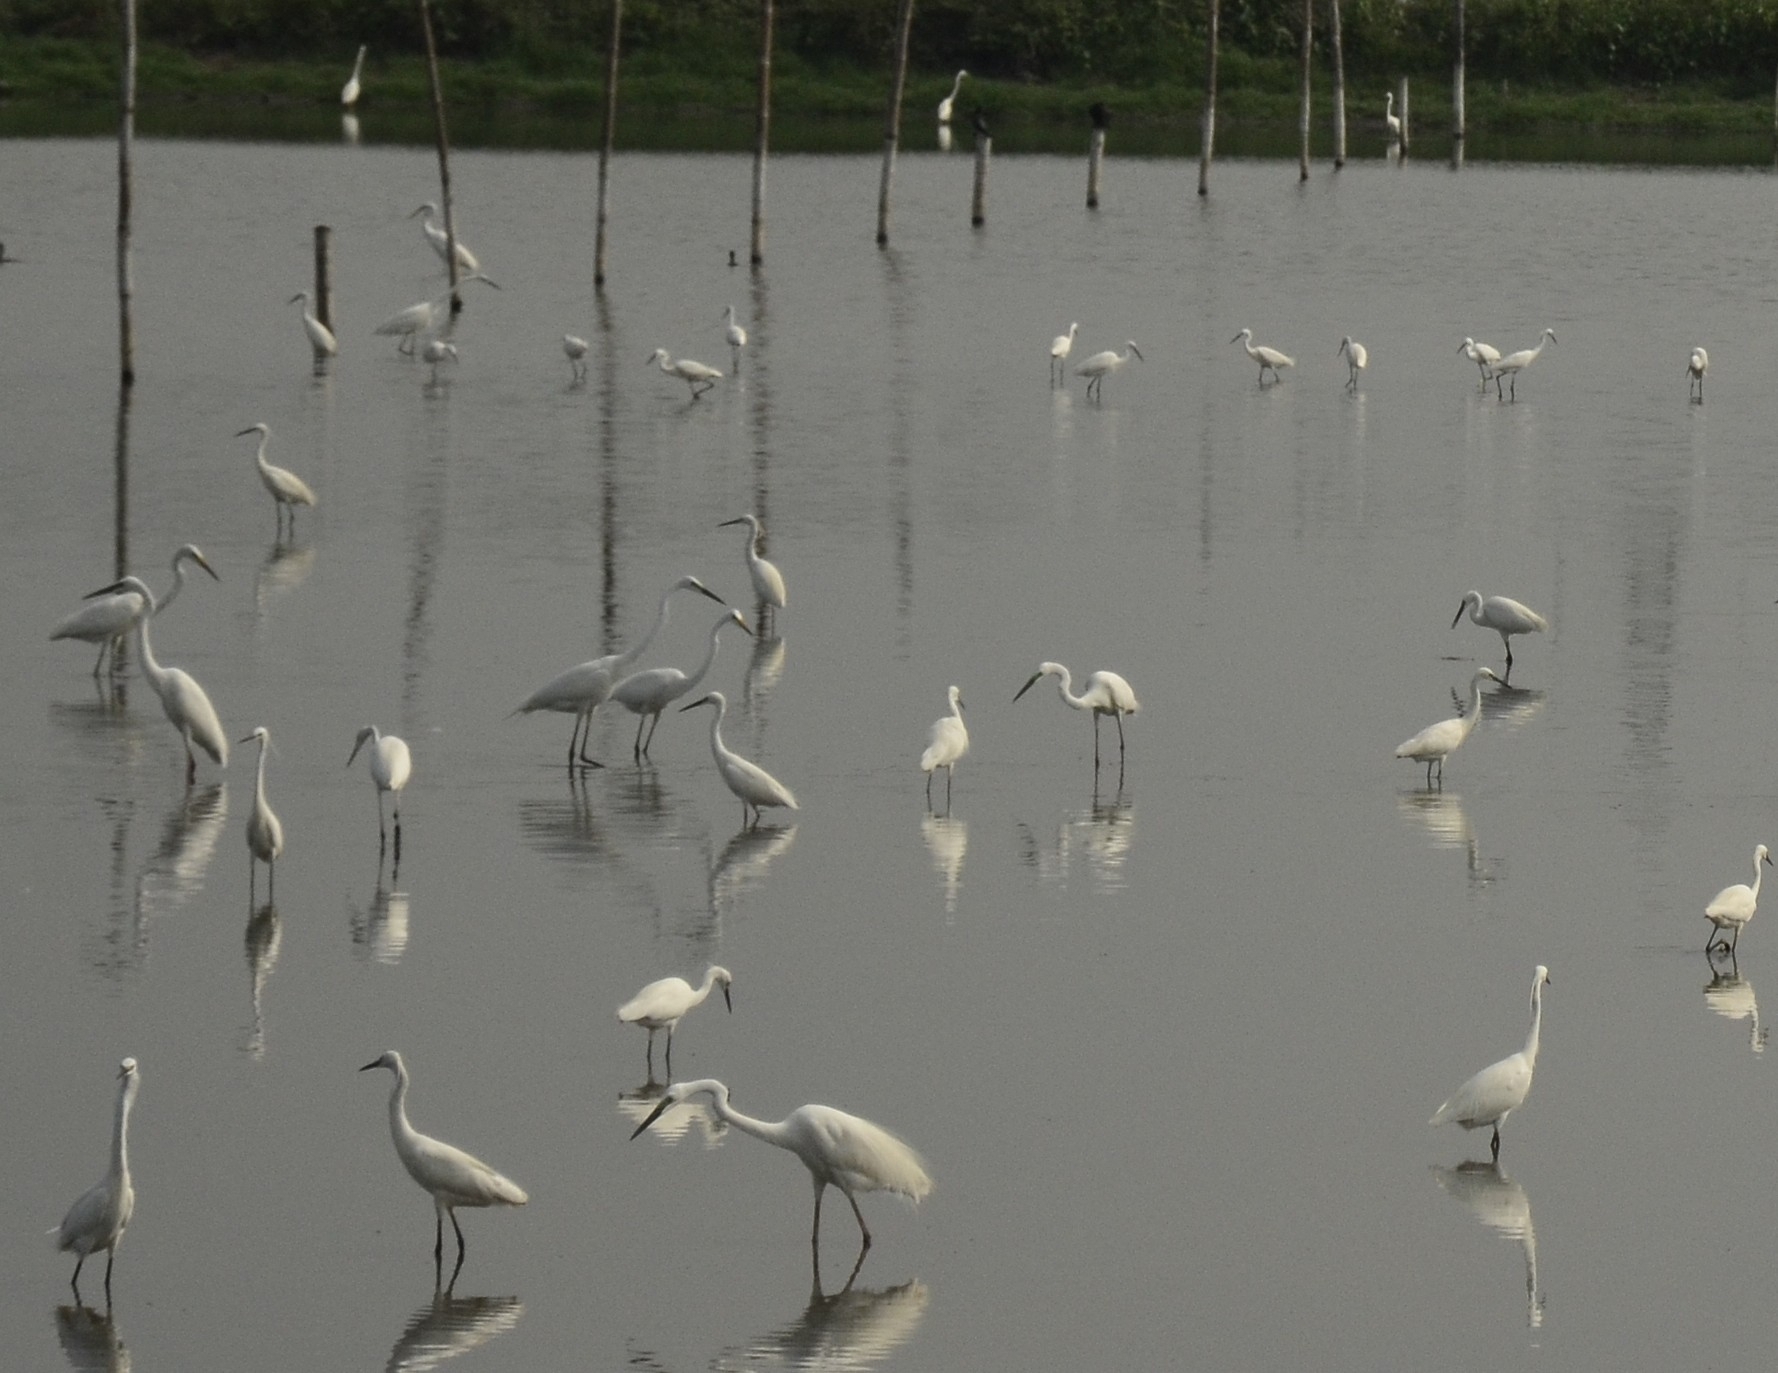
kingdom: Animalia
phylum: Chordata
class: Aves
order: Pelecaniformes
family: Ardeidae
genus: Egretta
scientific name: Egretta garzetta
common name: Little egret
